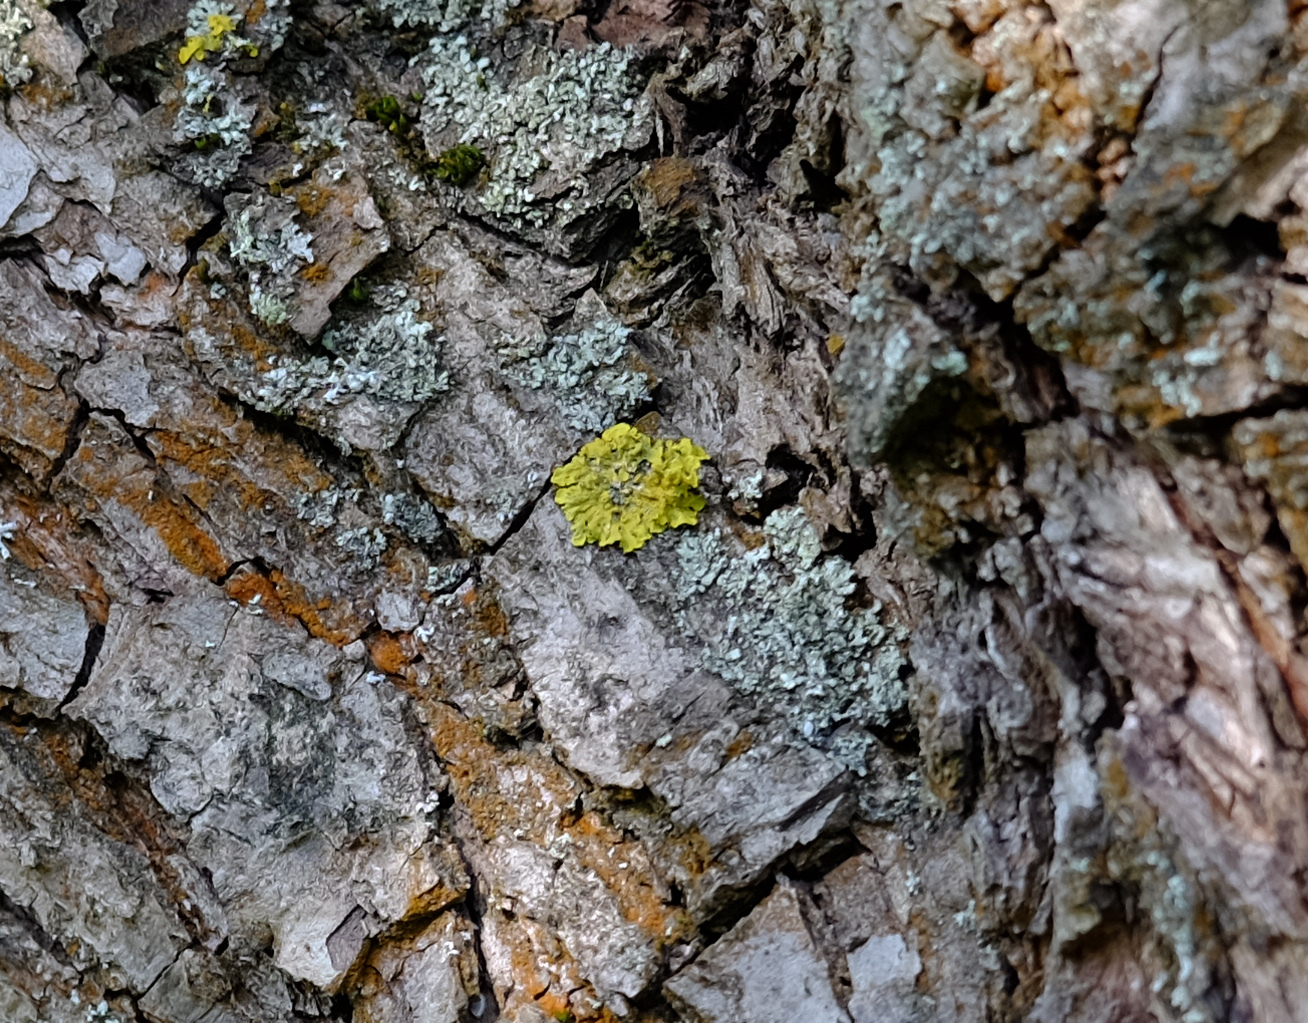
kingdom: Fungi
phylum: Ascomycota
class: Lecanoromycetes
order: Teloschistales
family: Teloschistaceae
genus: Xanthoria
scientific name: Xanthoria parietina
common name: Common orange lichen
